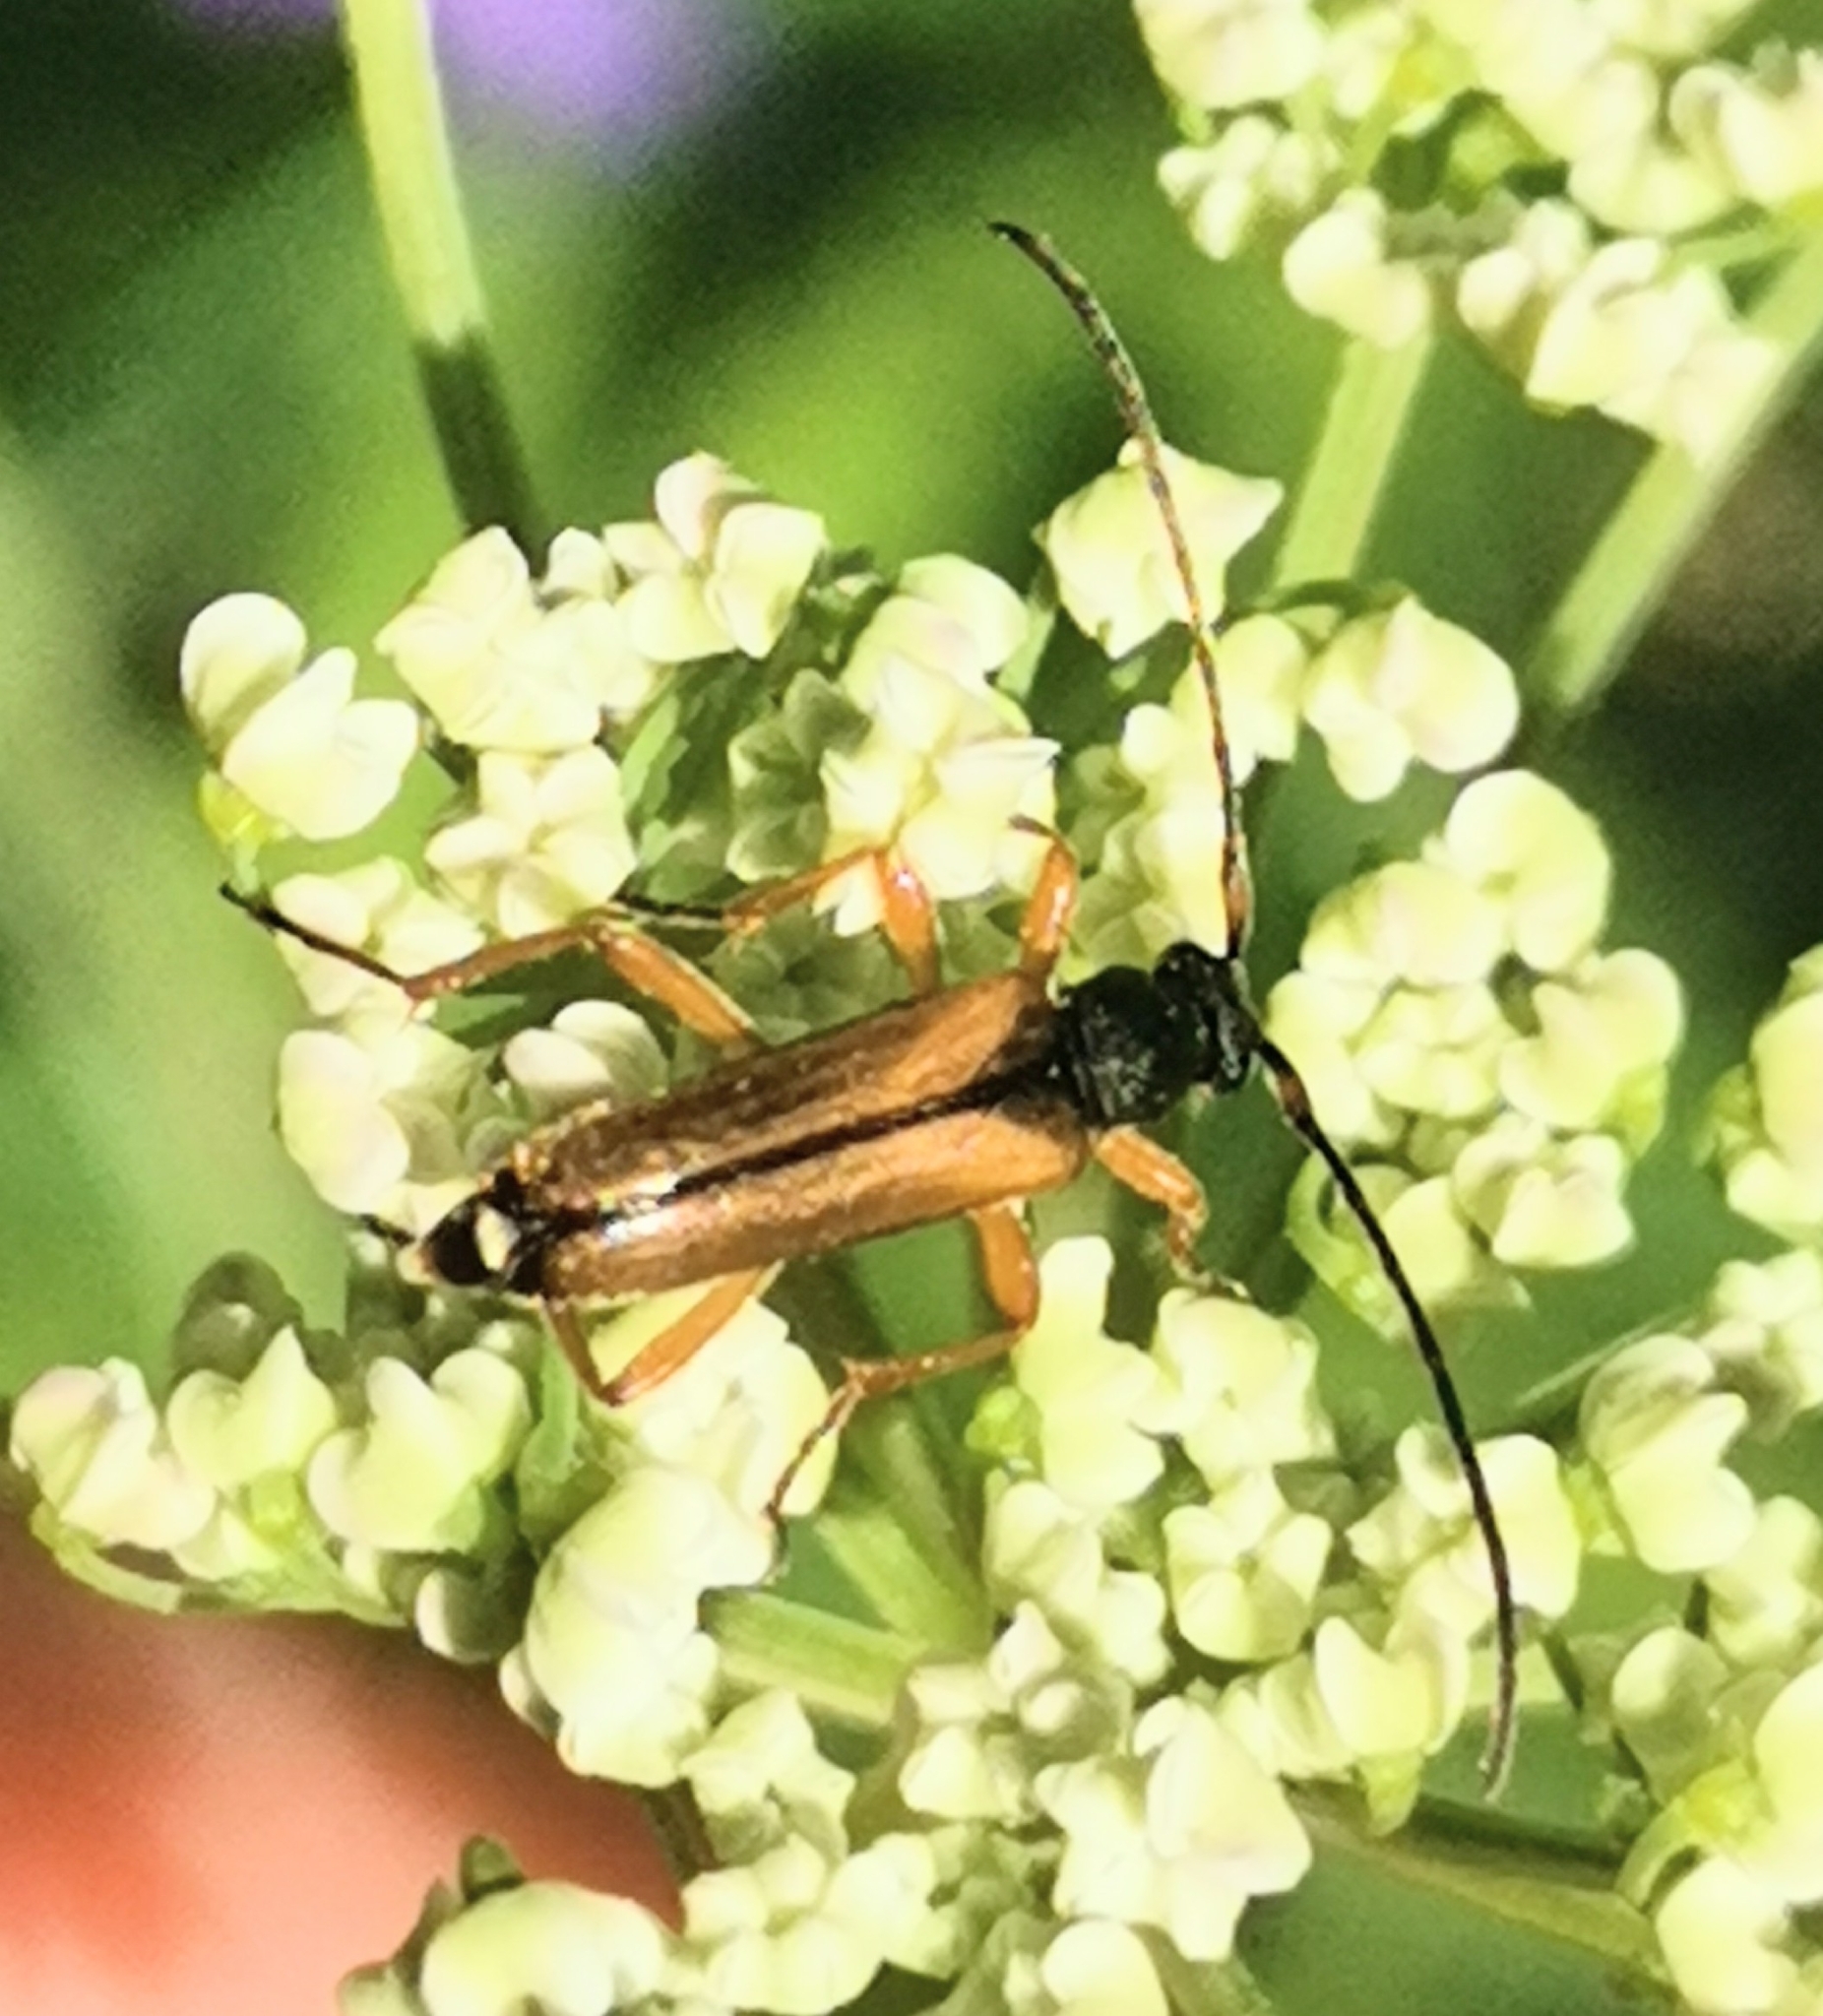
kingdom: Animalia
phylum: Arthropoda
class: Insecta
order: Coleoptera
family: Cerambycidae
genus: Alosterna
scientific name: Alosterna tabacicolor
